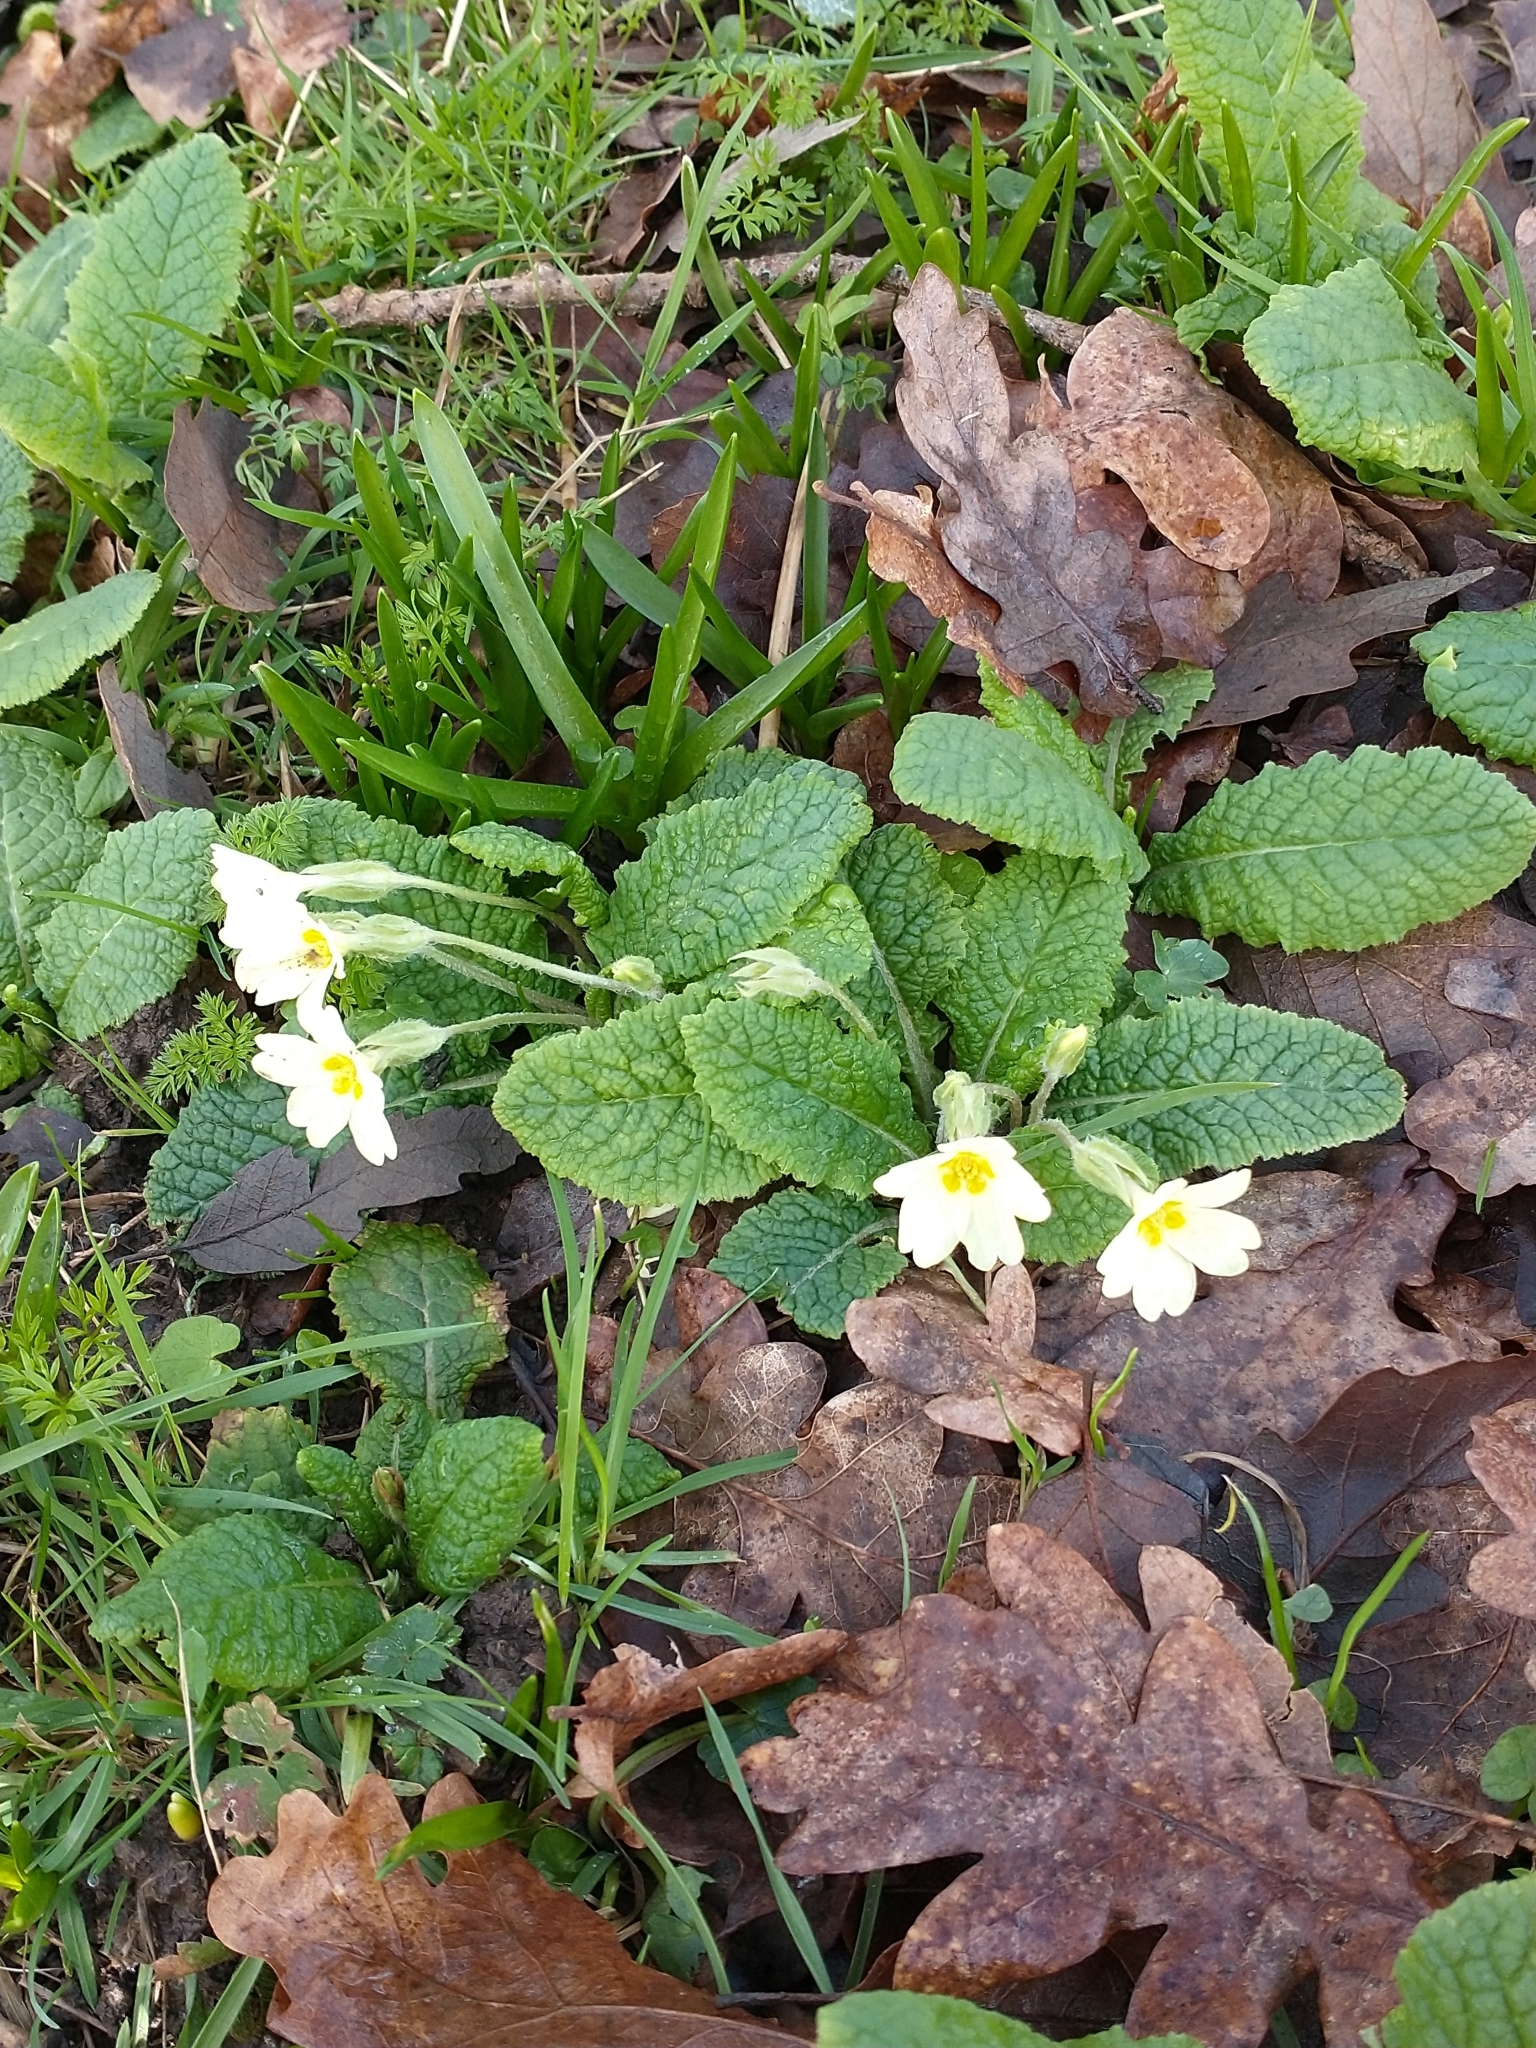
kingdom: Plantae
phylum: Tracheophyta
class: Magnoliopsida
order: Ericales
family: Primulaceae
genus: Primula
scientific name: Primula vulgaris
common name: Primrose
